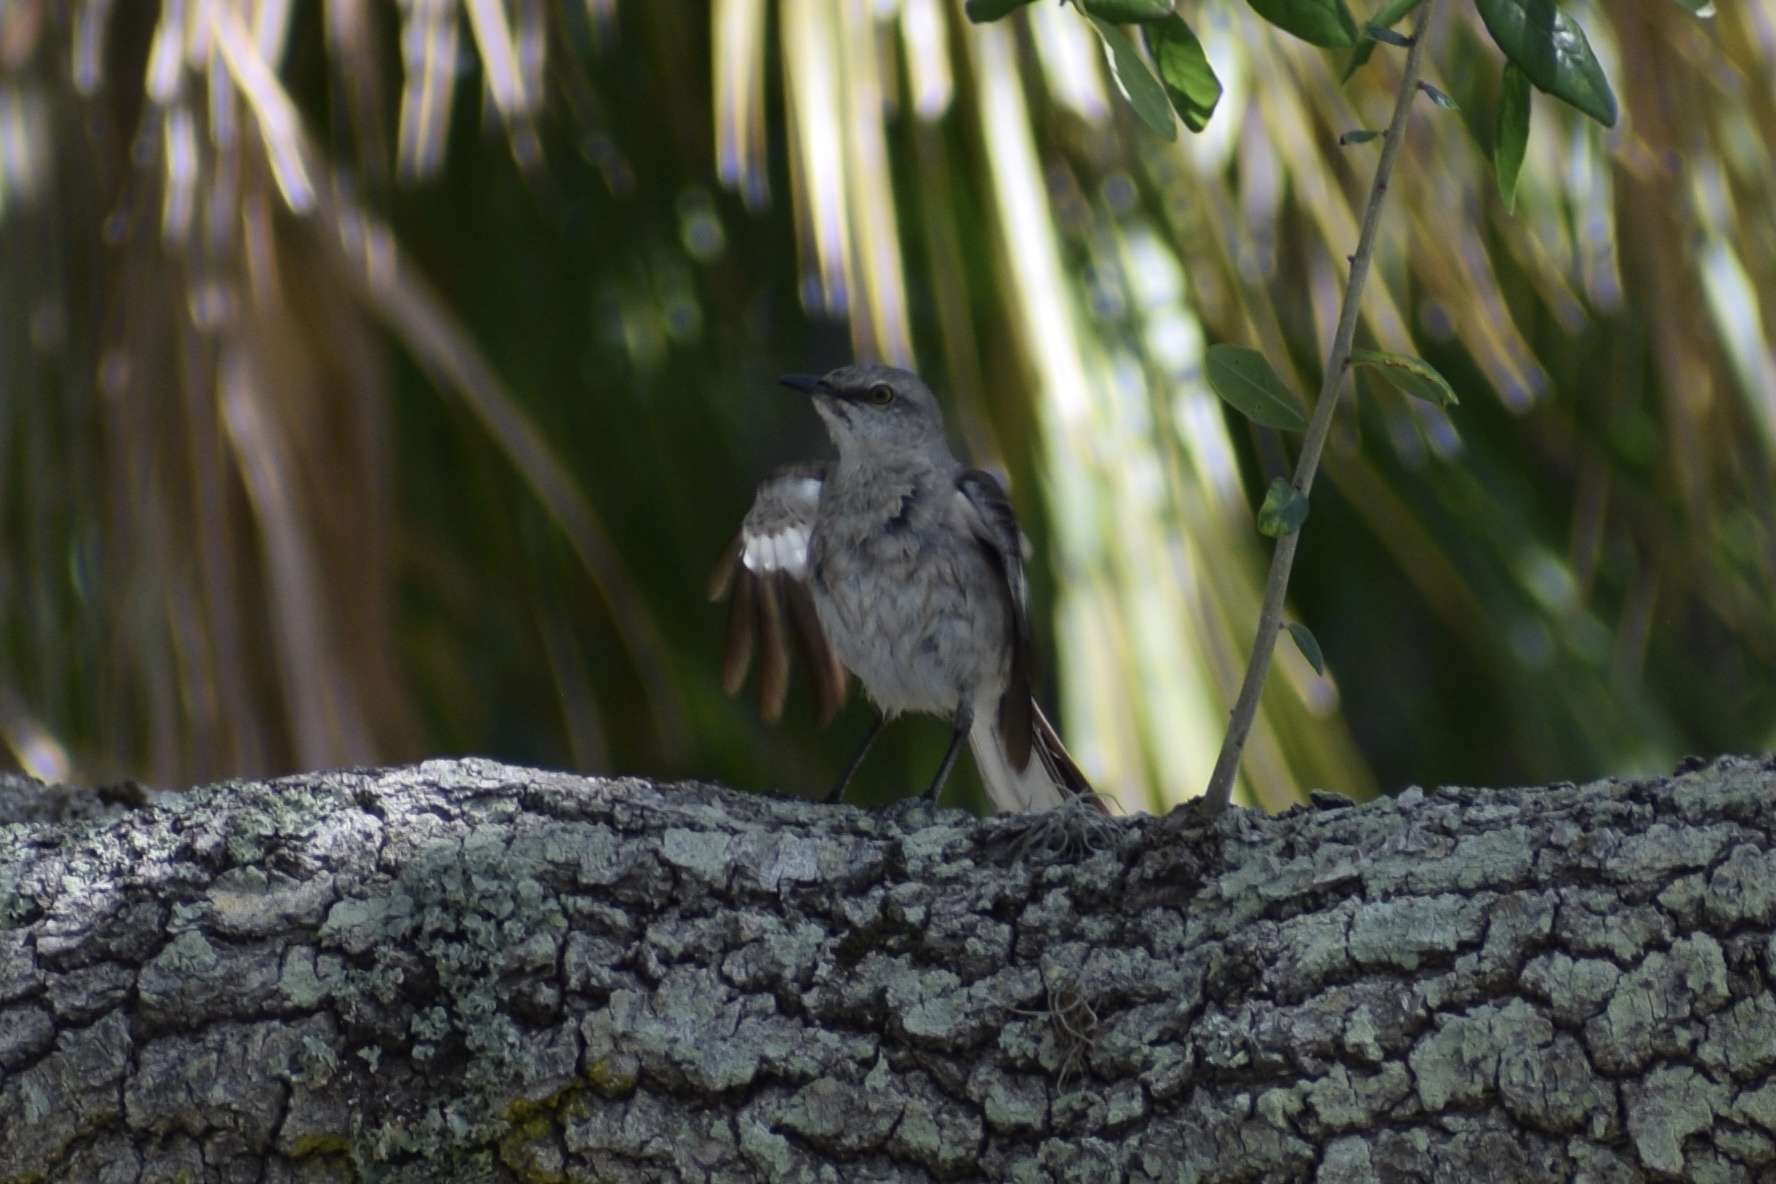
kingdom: Animalia
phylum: Chordata
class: Aves
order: Passeriformes
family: Mimidae
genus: Mimus
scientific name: Mimus polyglottos
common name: Northern mockingbird
